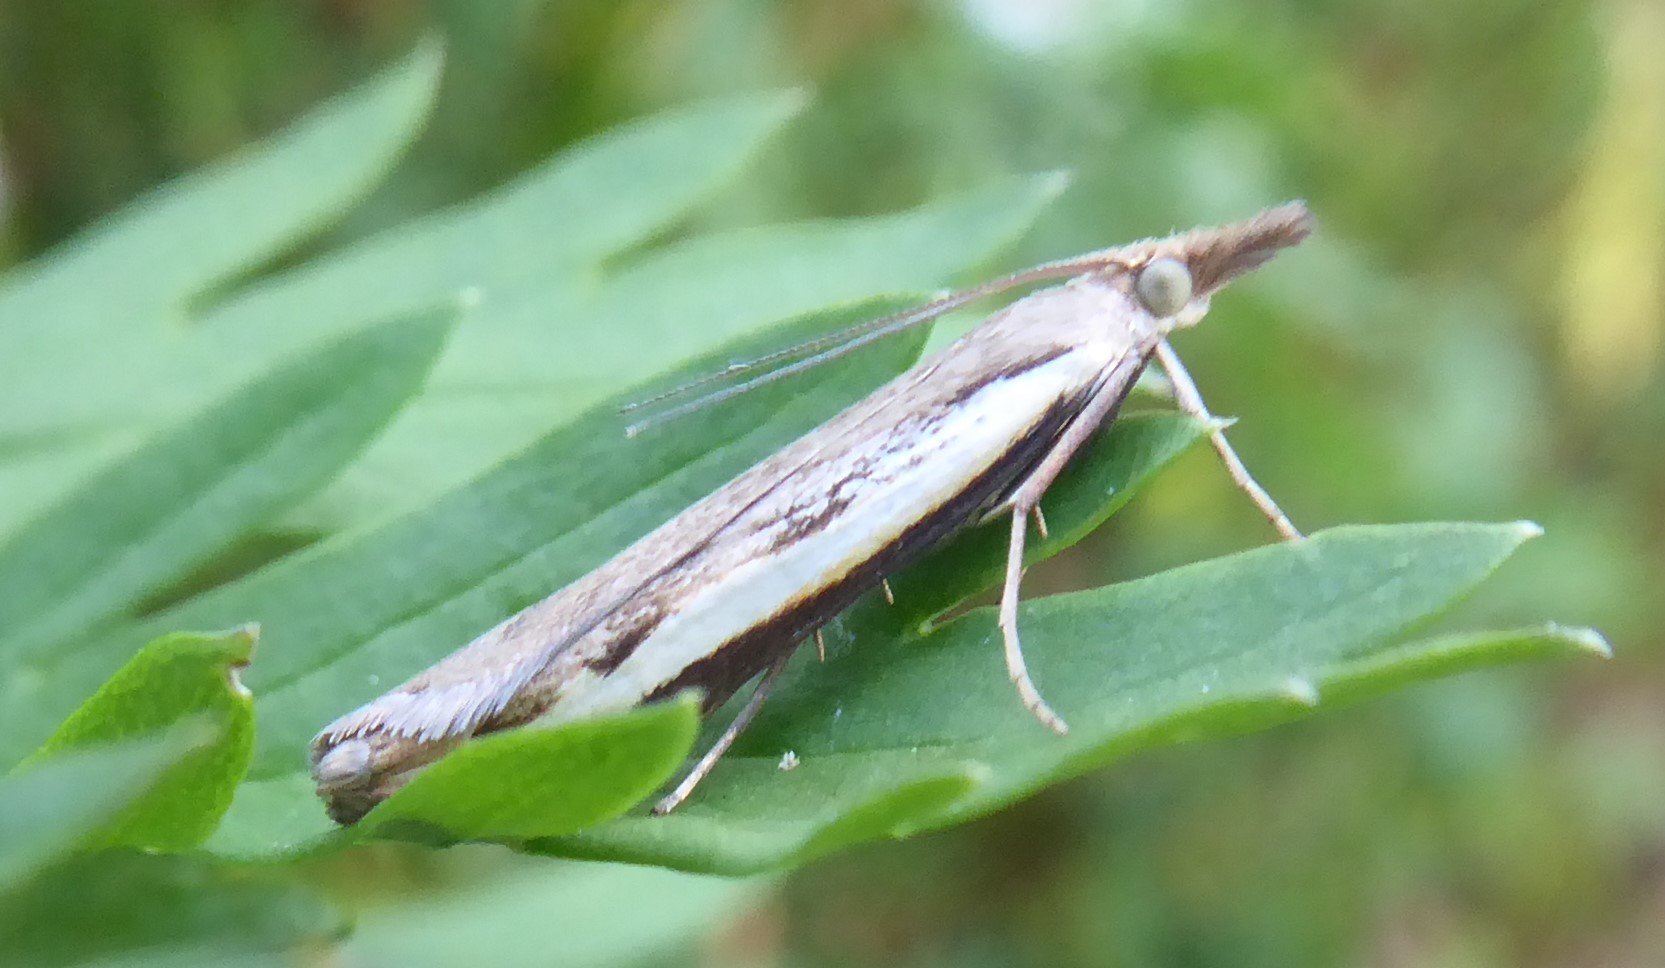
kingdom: Animalia
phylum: Arthropoda
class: Insecta
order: Lepidoptera
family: Crambidae
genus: Orocrambus
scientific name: Orocrambus flexuosellus
